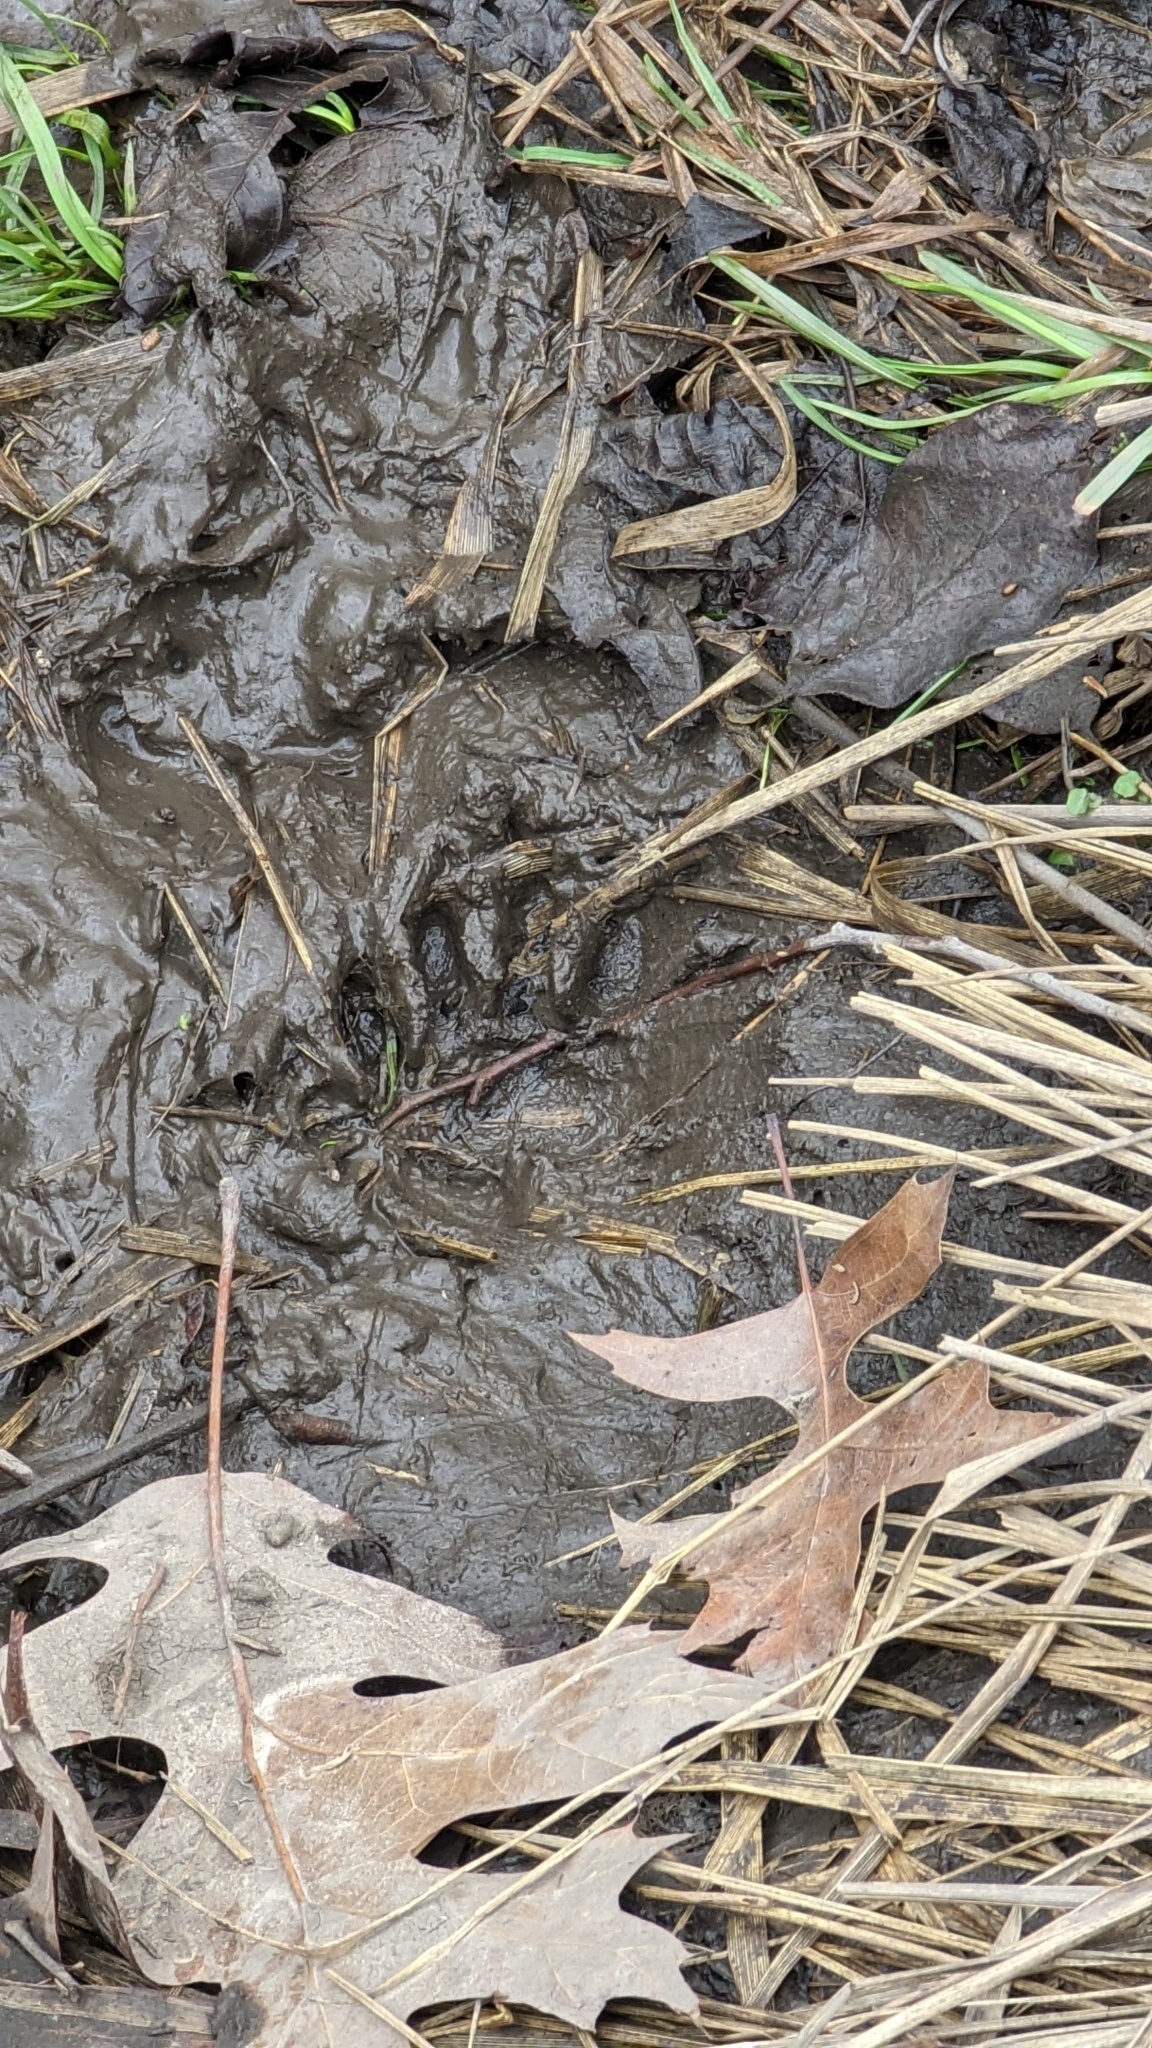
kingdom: Animalia
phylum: Chordata
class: Mammalia
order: Carnivora
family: Procyonidae
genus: Procyon
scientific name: Procyon lotor
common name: Raccoon
